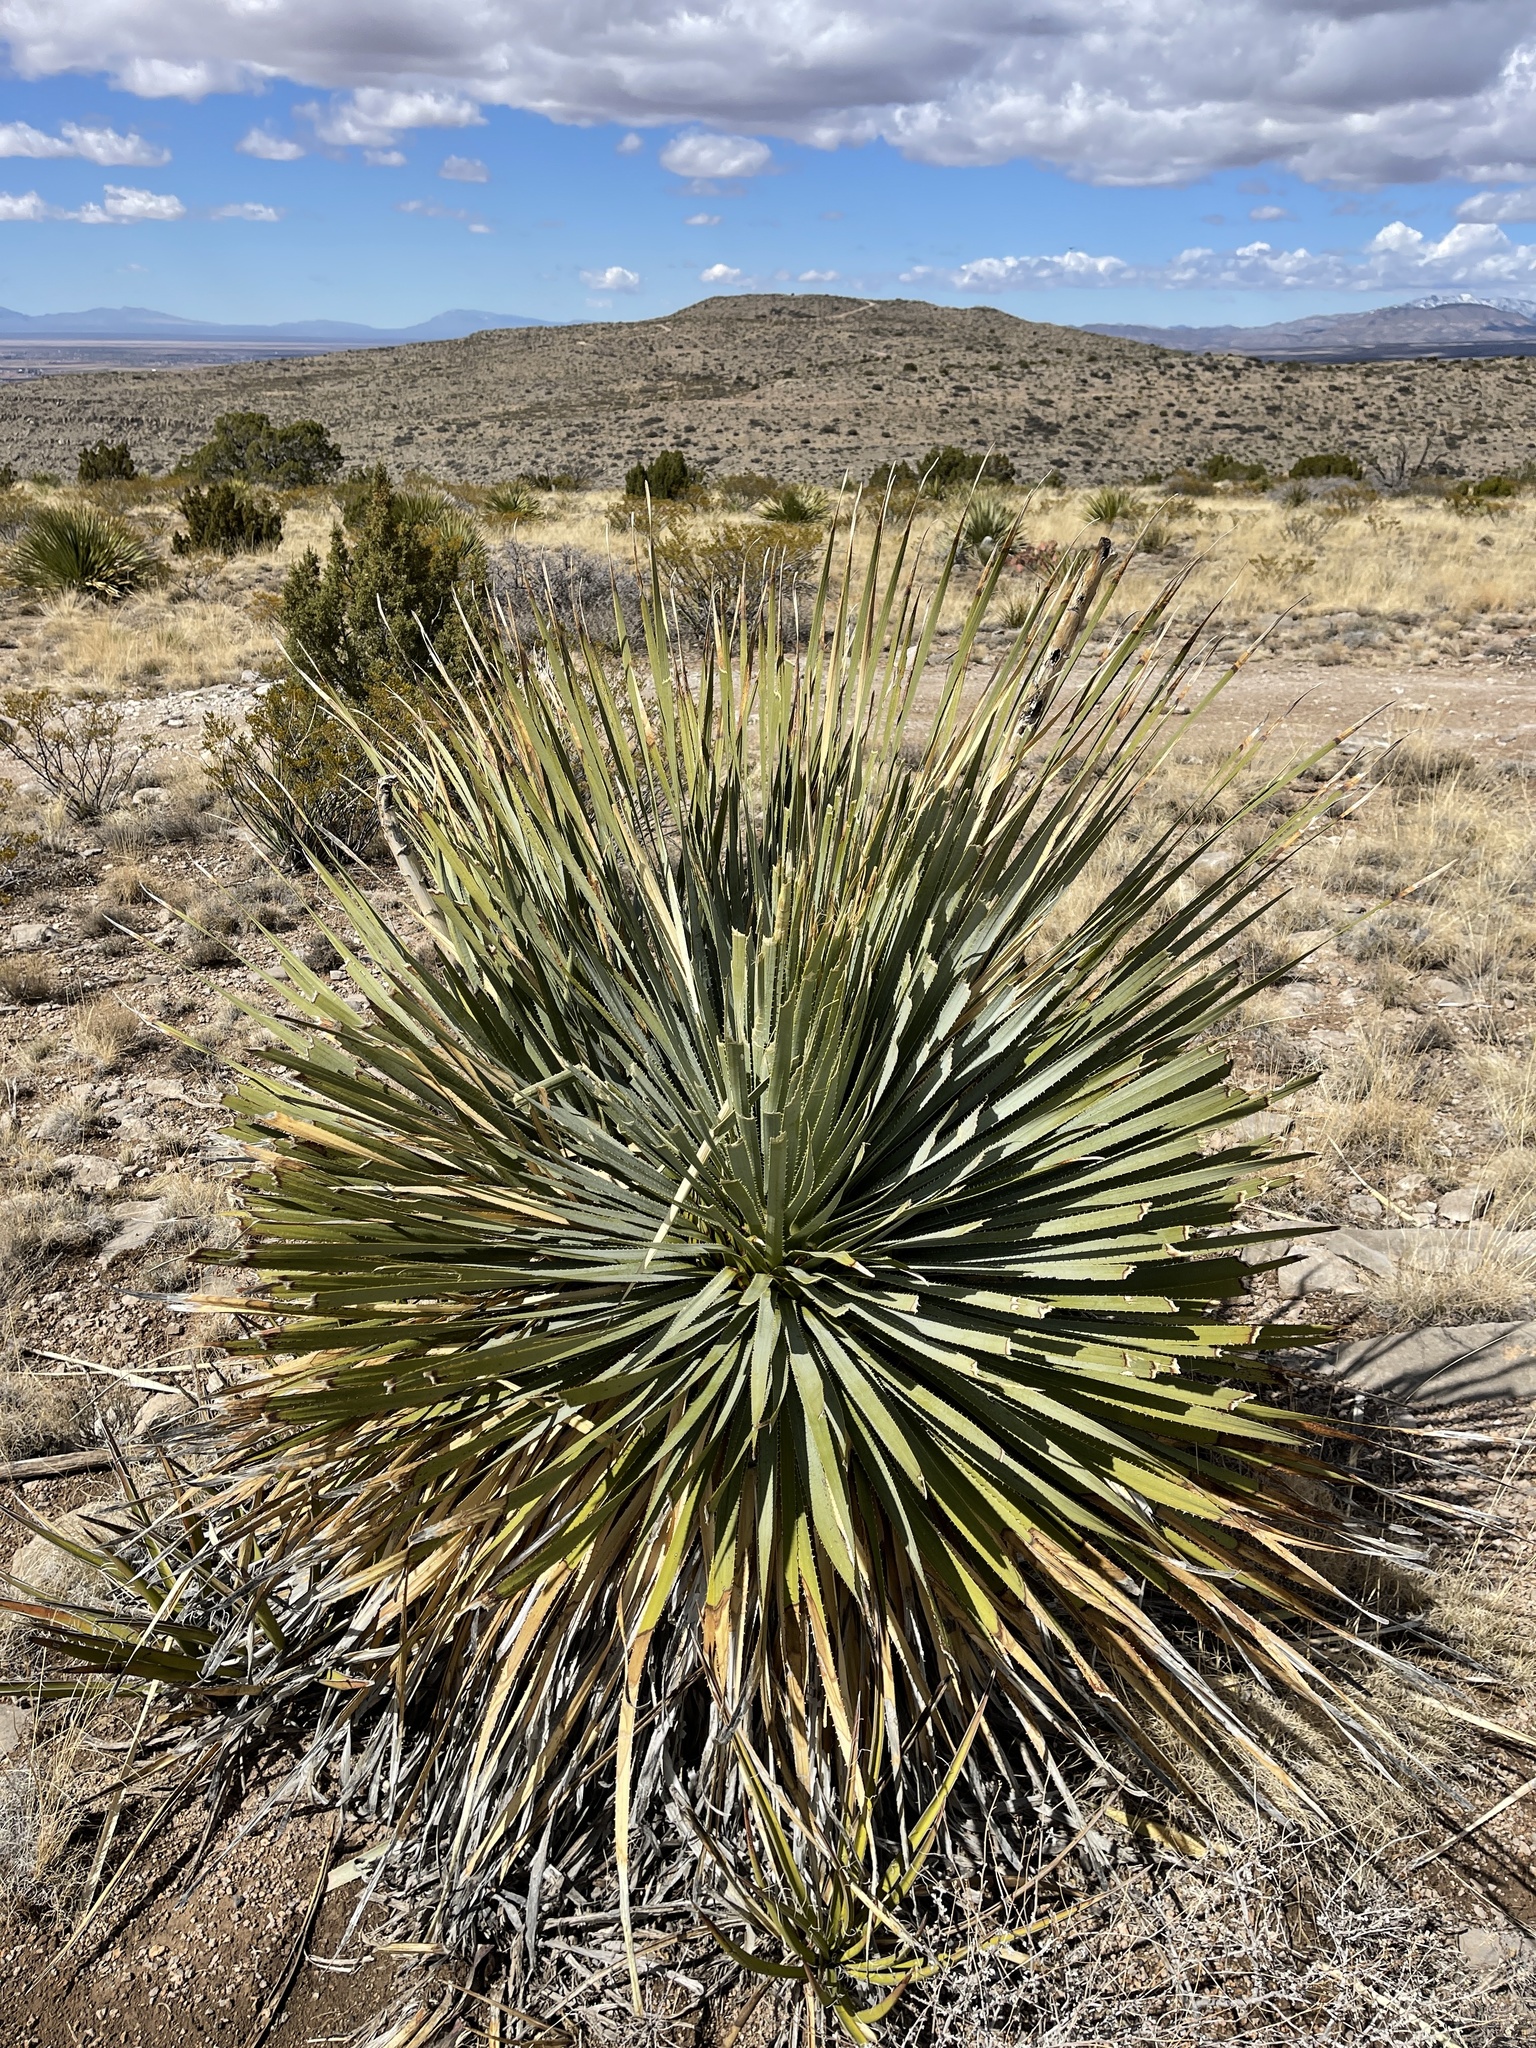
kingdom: Plantae
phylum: Tracheophyta
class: Liliopsida
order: Asparagales
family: Asparagaceae
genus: Dasylirion
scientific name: Dasylirion wheeleri
